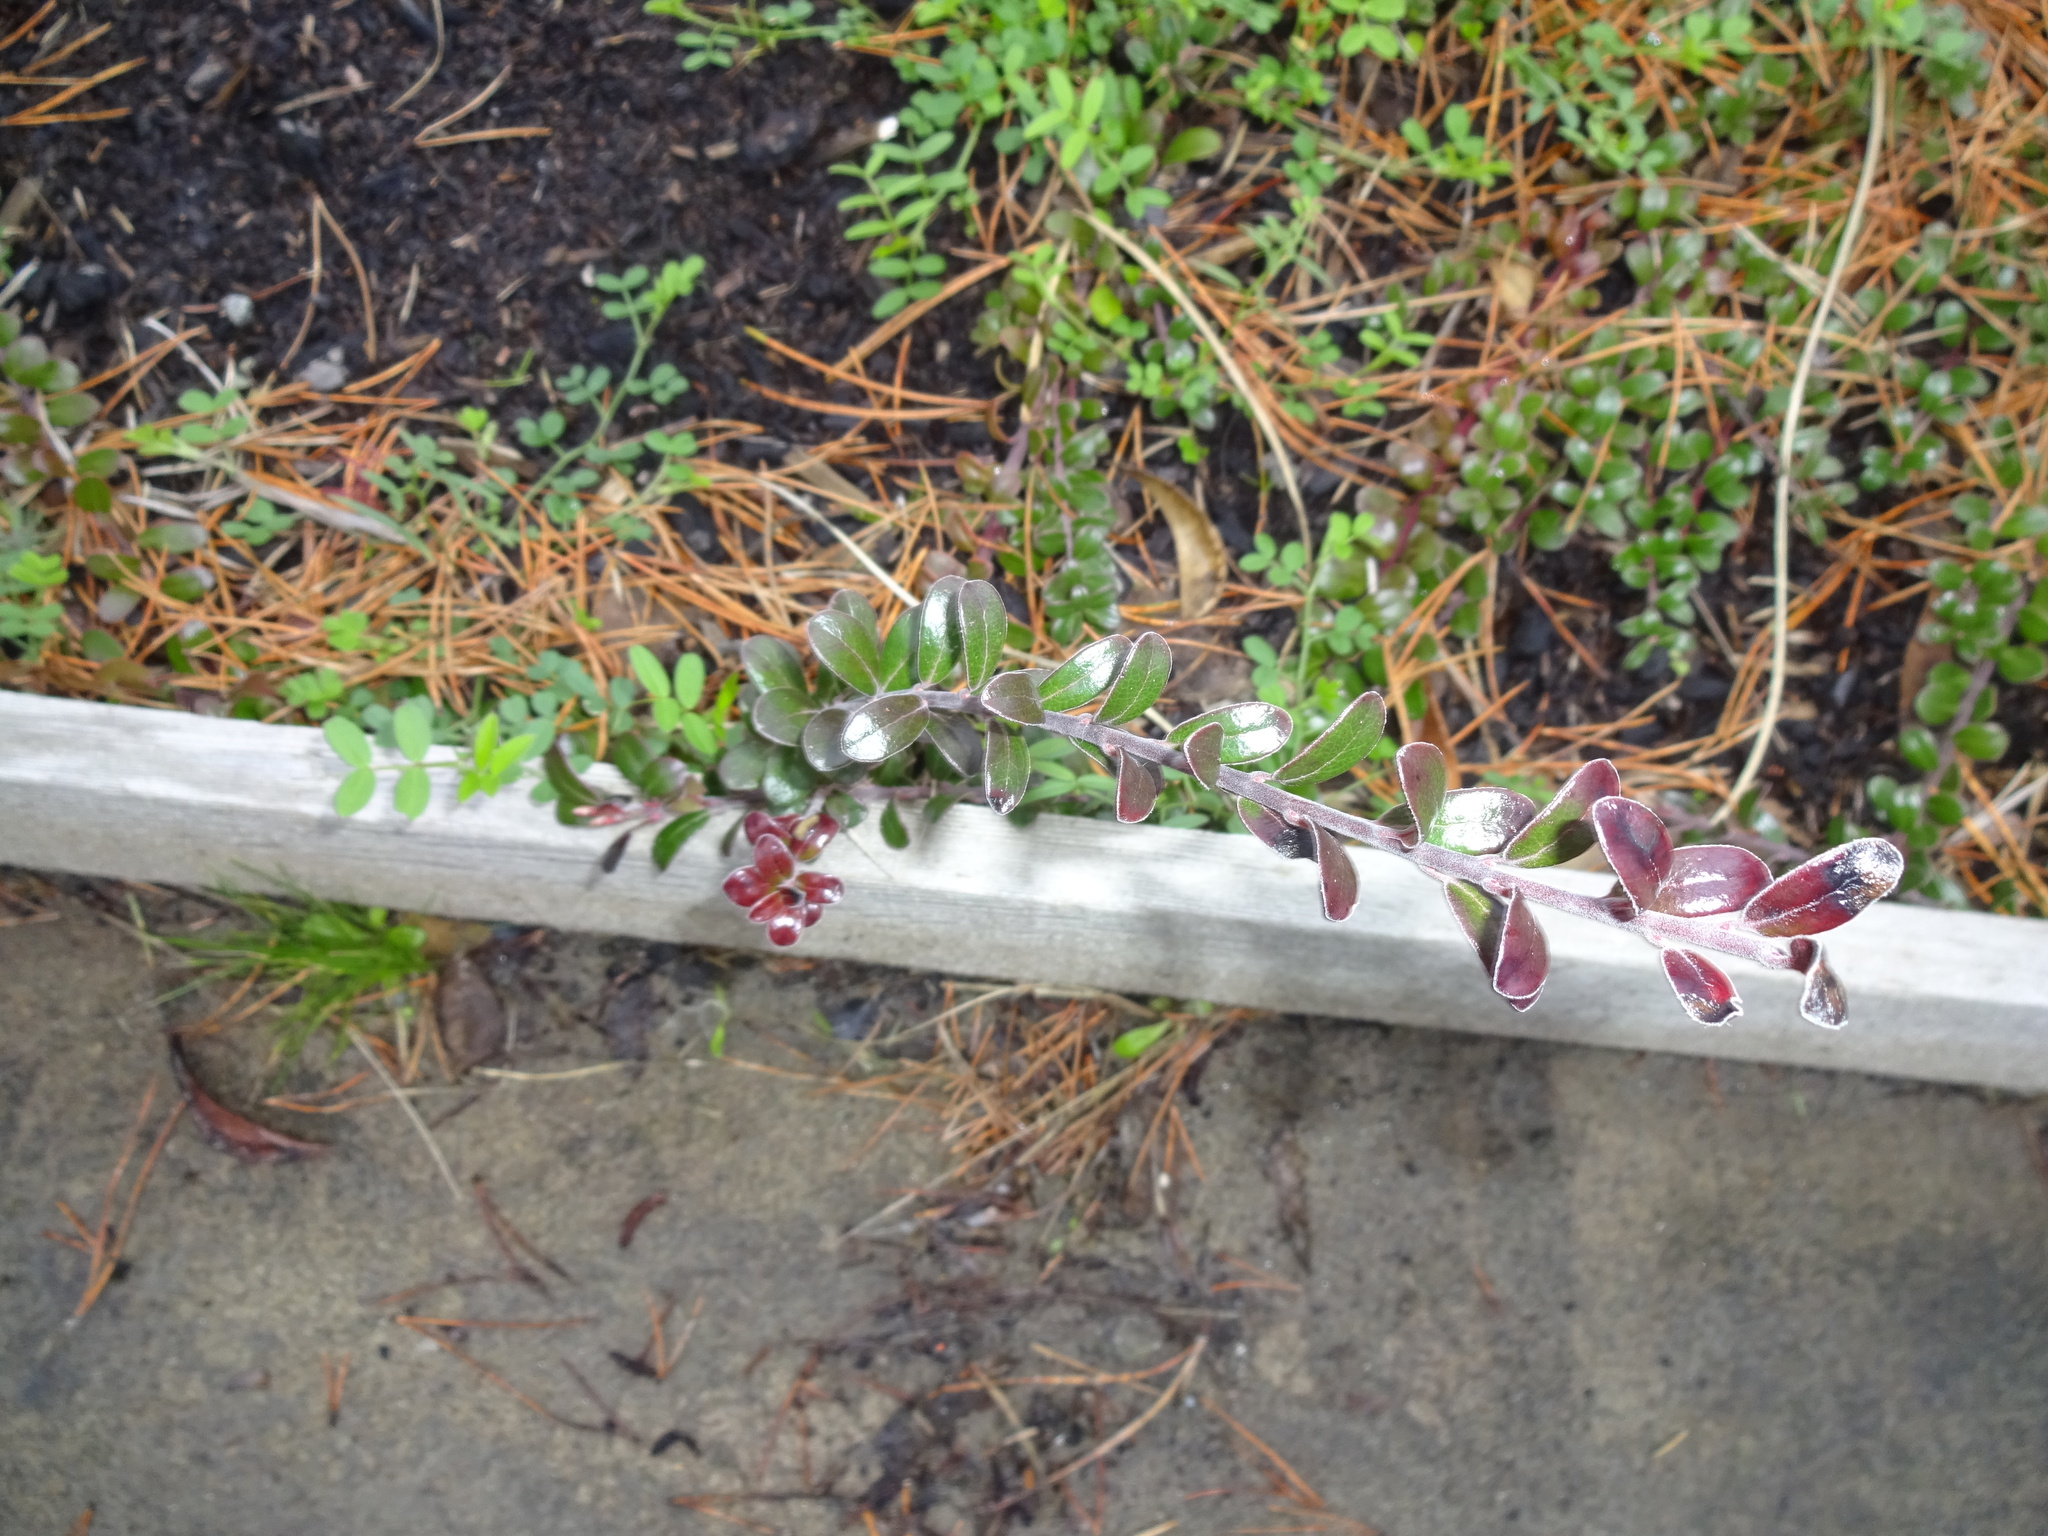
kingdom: Plantae
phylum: Tracheophyta
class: Magnoliopsida
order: Ericales
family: Ericaceae
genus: Arctostaphylos
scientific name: Arctostaphylos uva-ursi
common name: Bearberry
